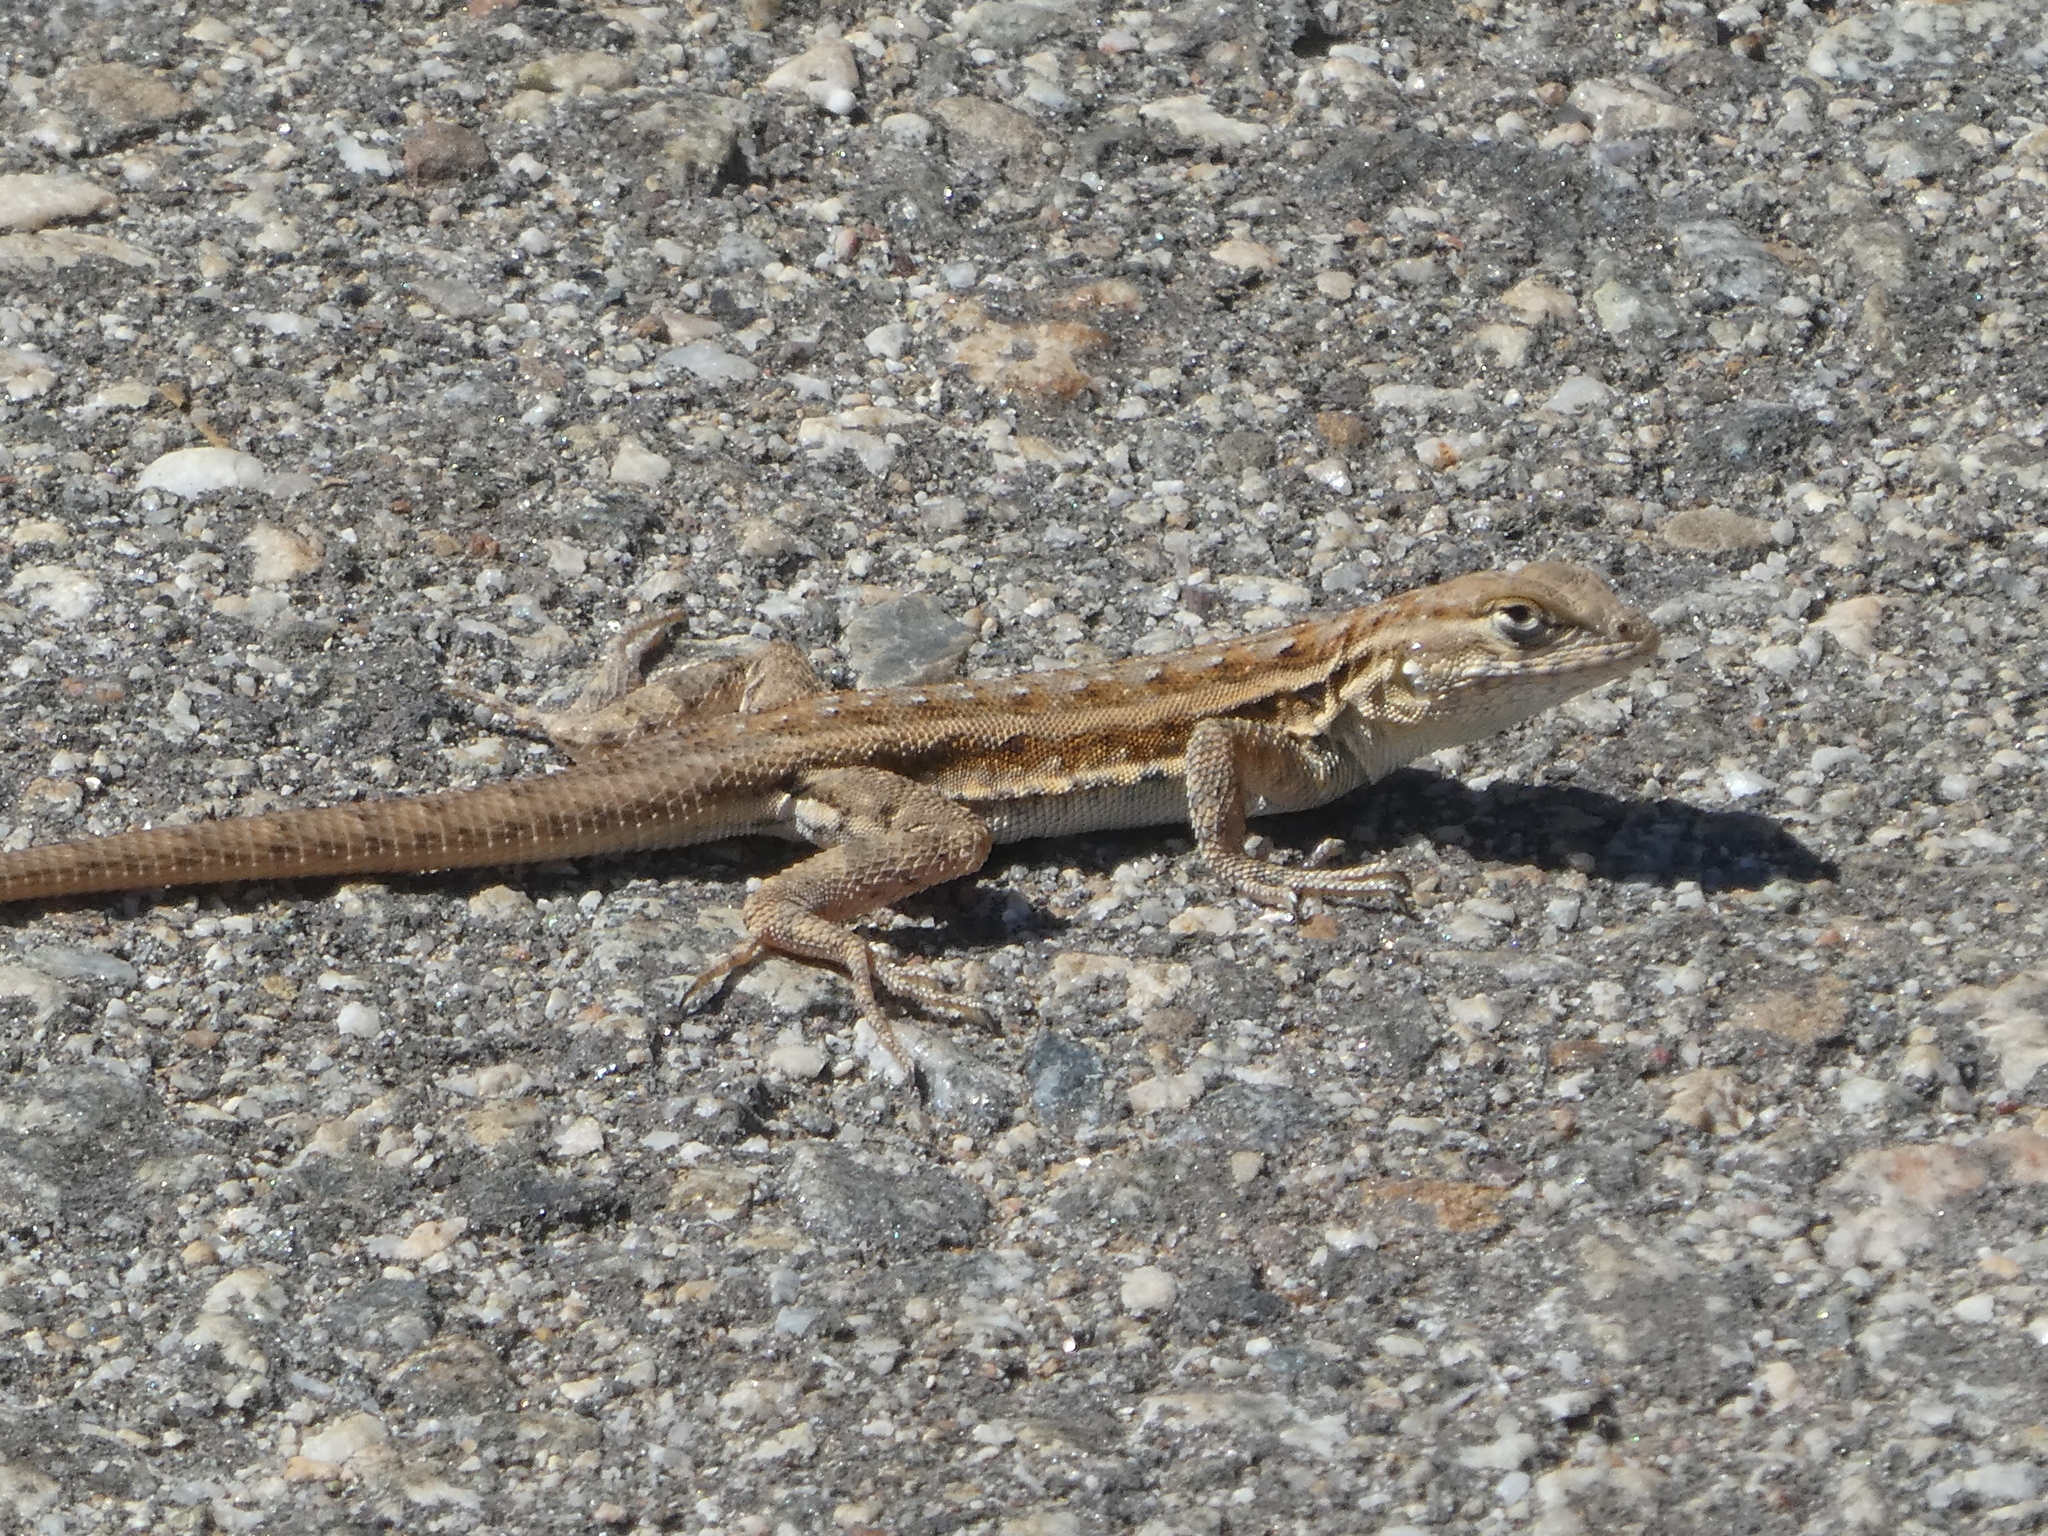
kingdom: Animalia
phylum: Chordata
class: Squamata
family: Phrynosomatidae
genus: Uta
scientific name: Uta stansburiana
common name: Side-blotched lizard
